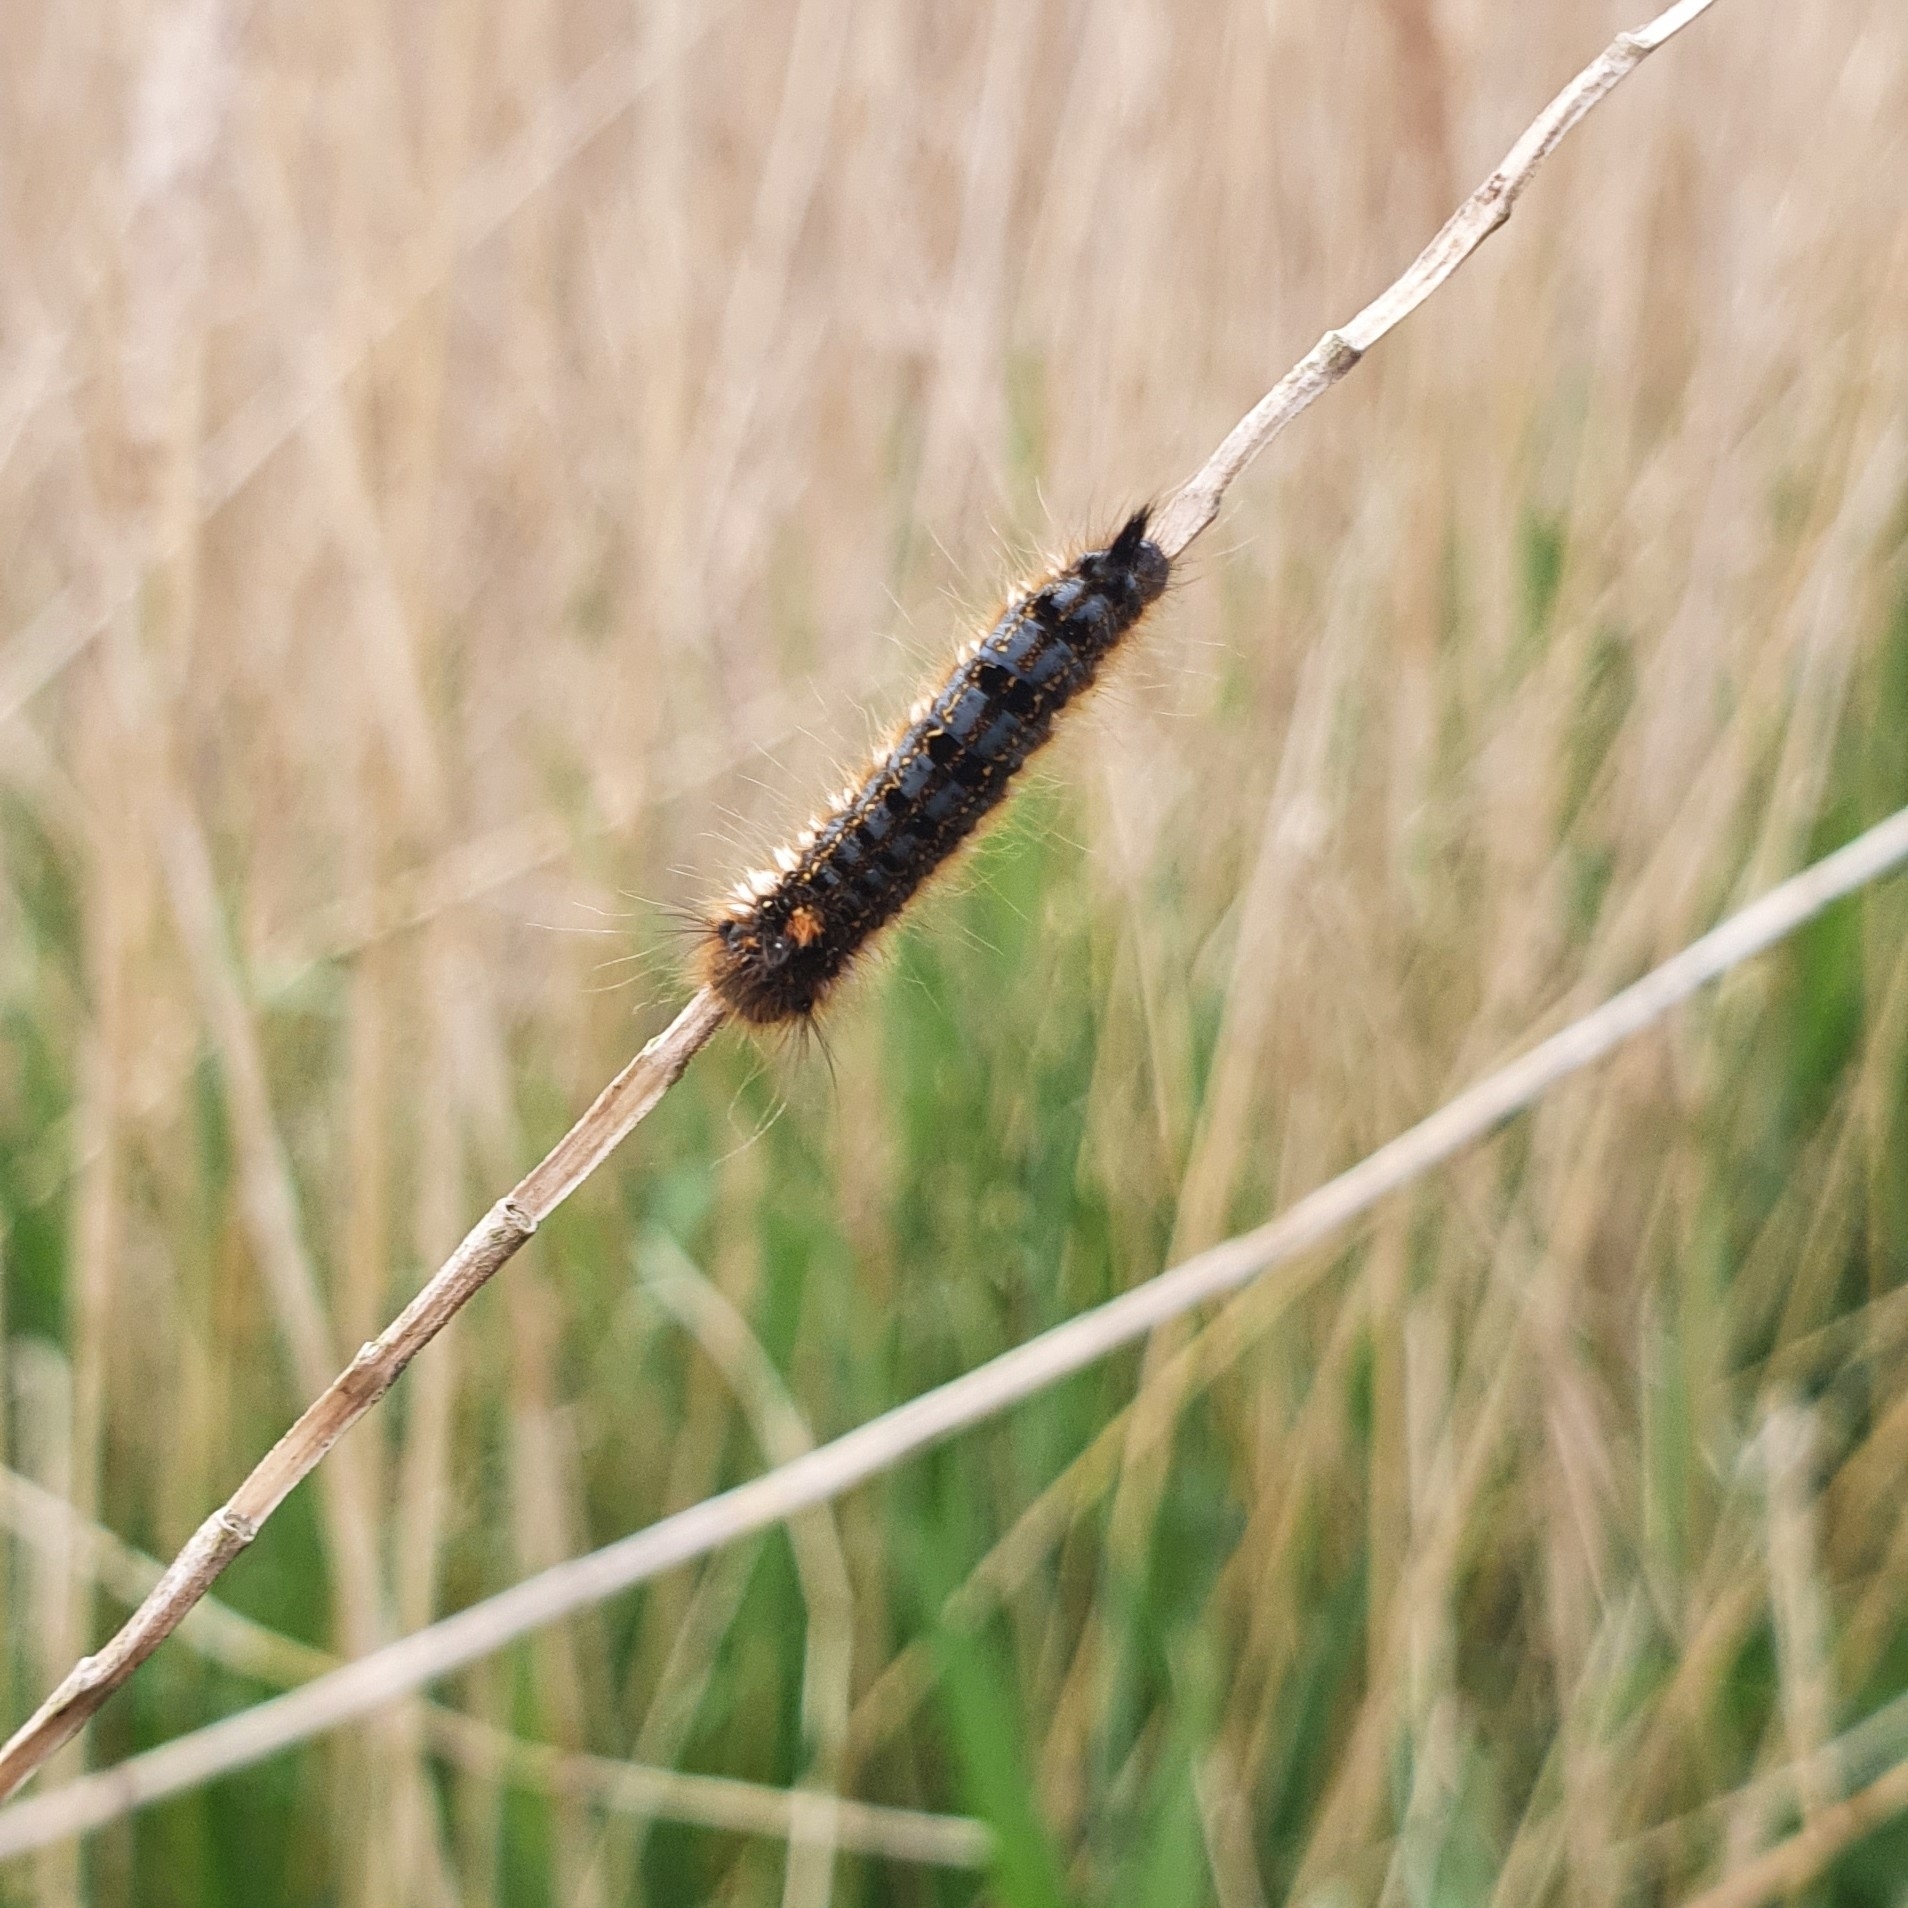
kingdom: Animalia
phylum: Arthropoda
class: Insecta
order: Lepidoptera
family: Lasiocampidae
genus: Euthrix
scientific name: Euthrix potatoria
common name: Drinker
